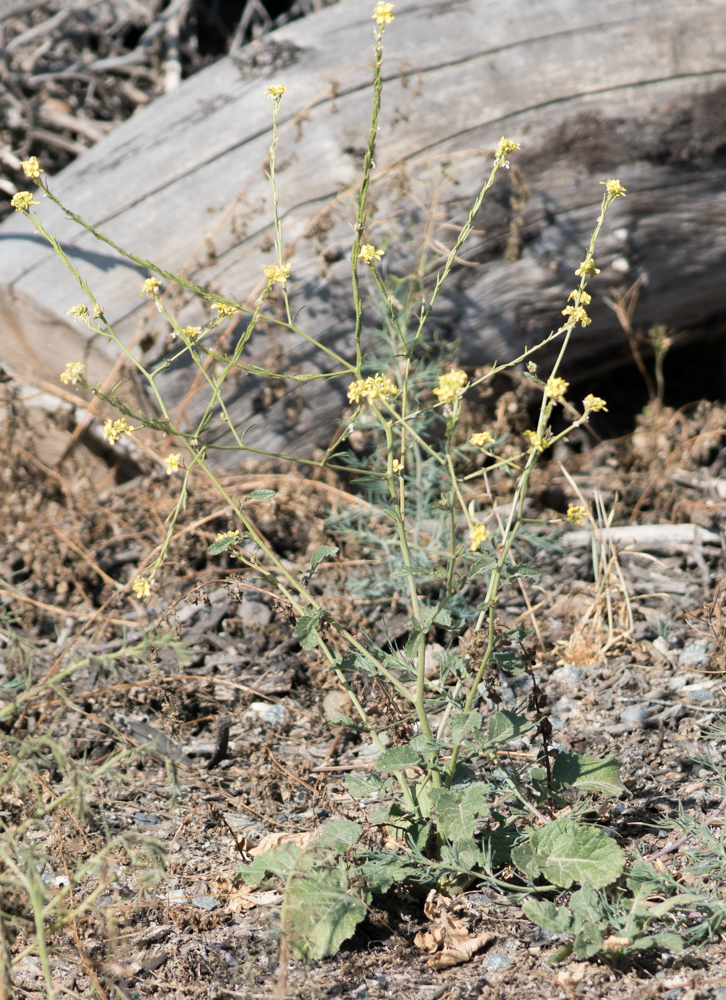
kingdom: Plantae
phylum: Tracheophyta
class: Magnoliopsida
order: Brassicales
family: Brassicaceae
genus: Hirschfeldia
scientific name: Hirschfeldia incana
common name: Hoary mustard
